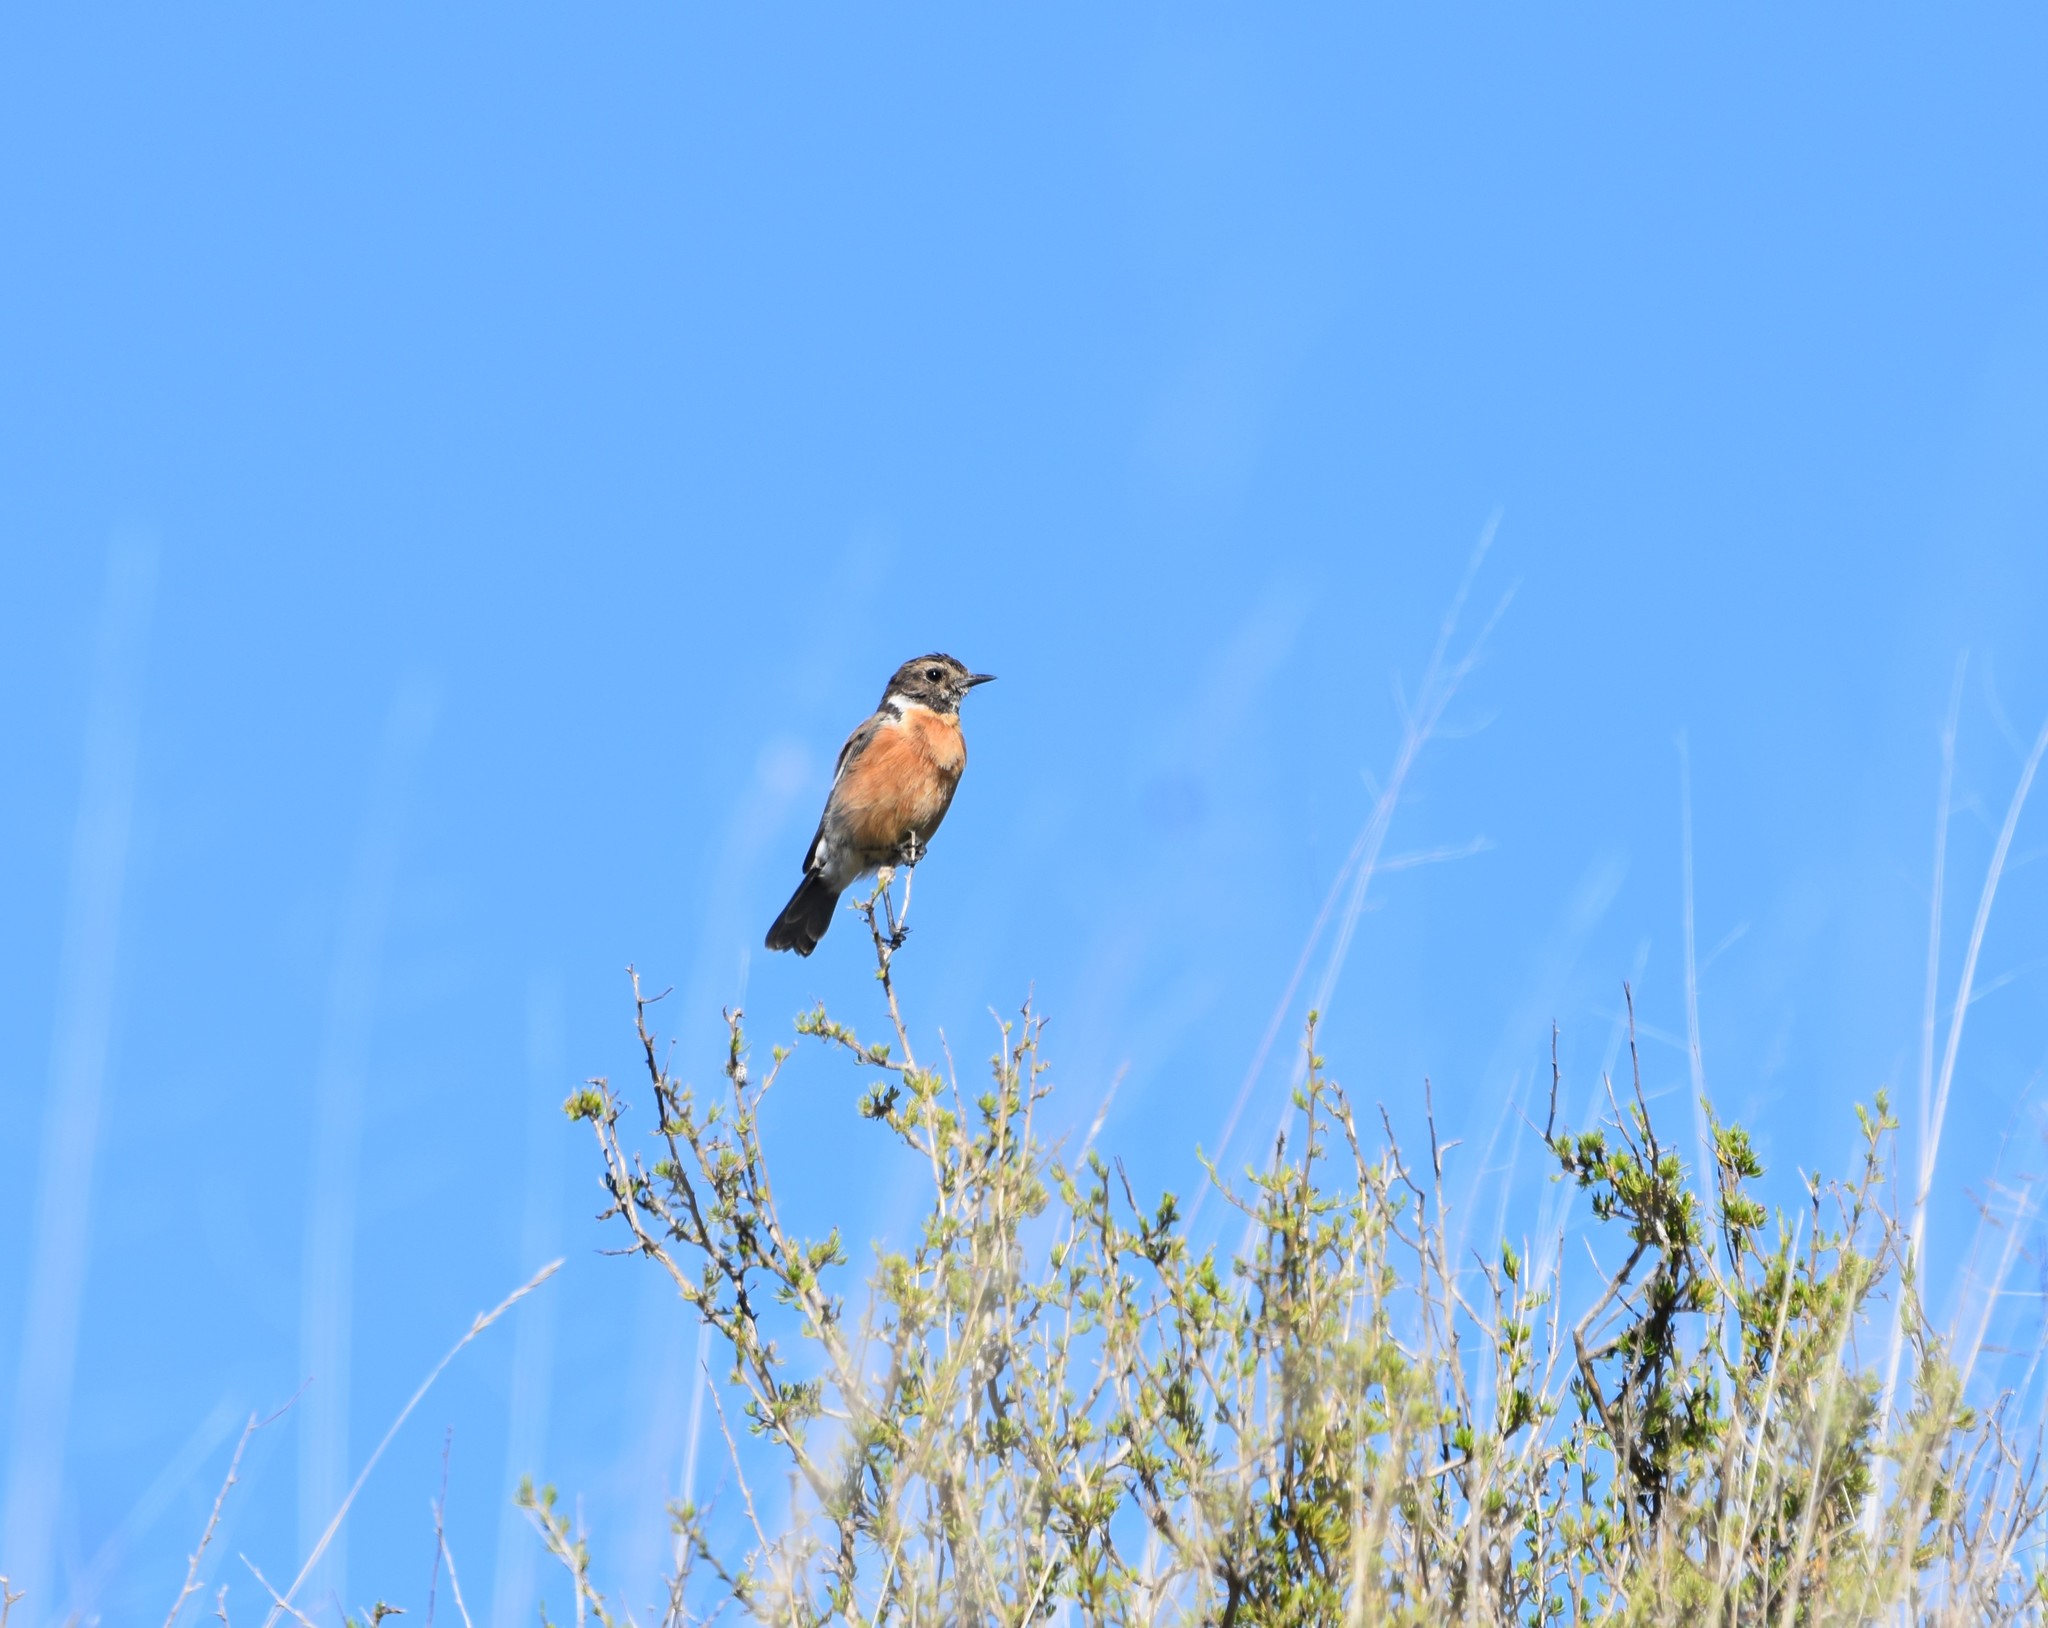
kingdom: Animalia
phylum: Chordata
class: Aves
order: Passeriformes
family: Muscicapidae
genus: Saxicola
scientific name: Saxicola torquatus
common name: African stonechat
